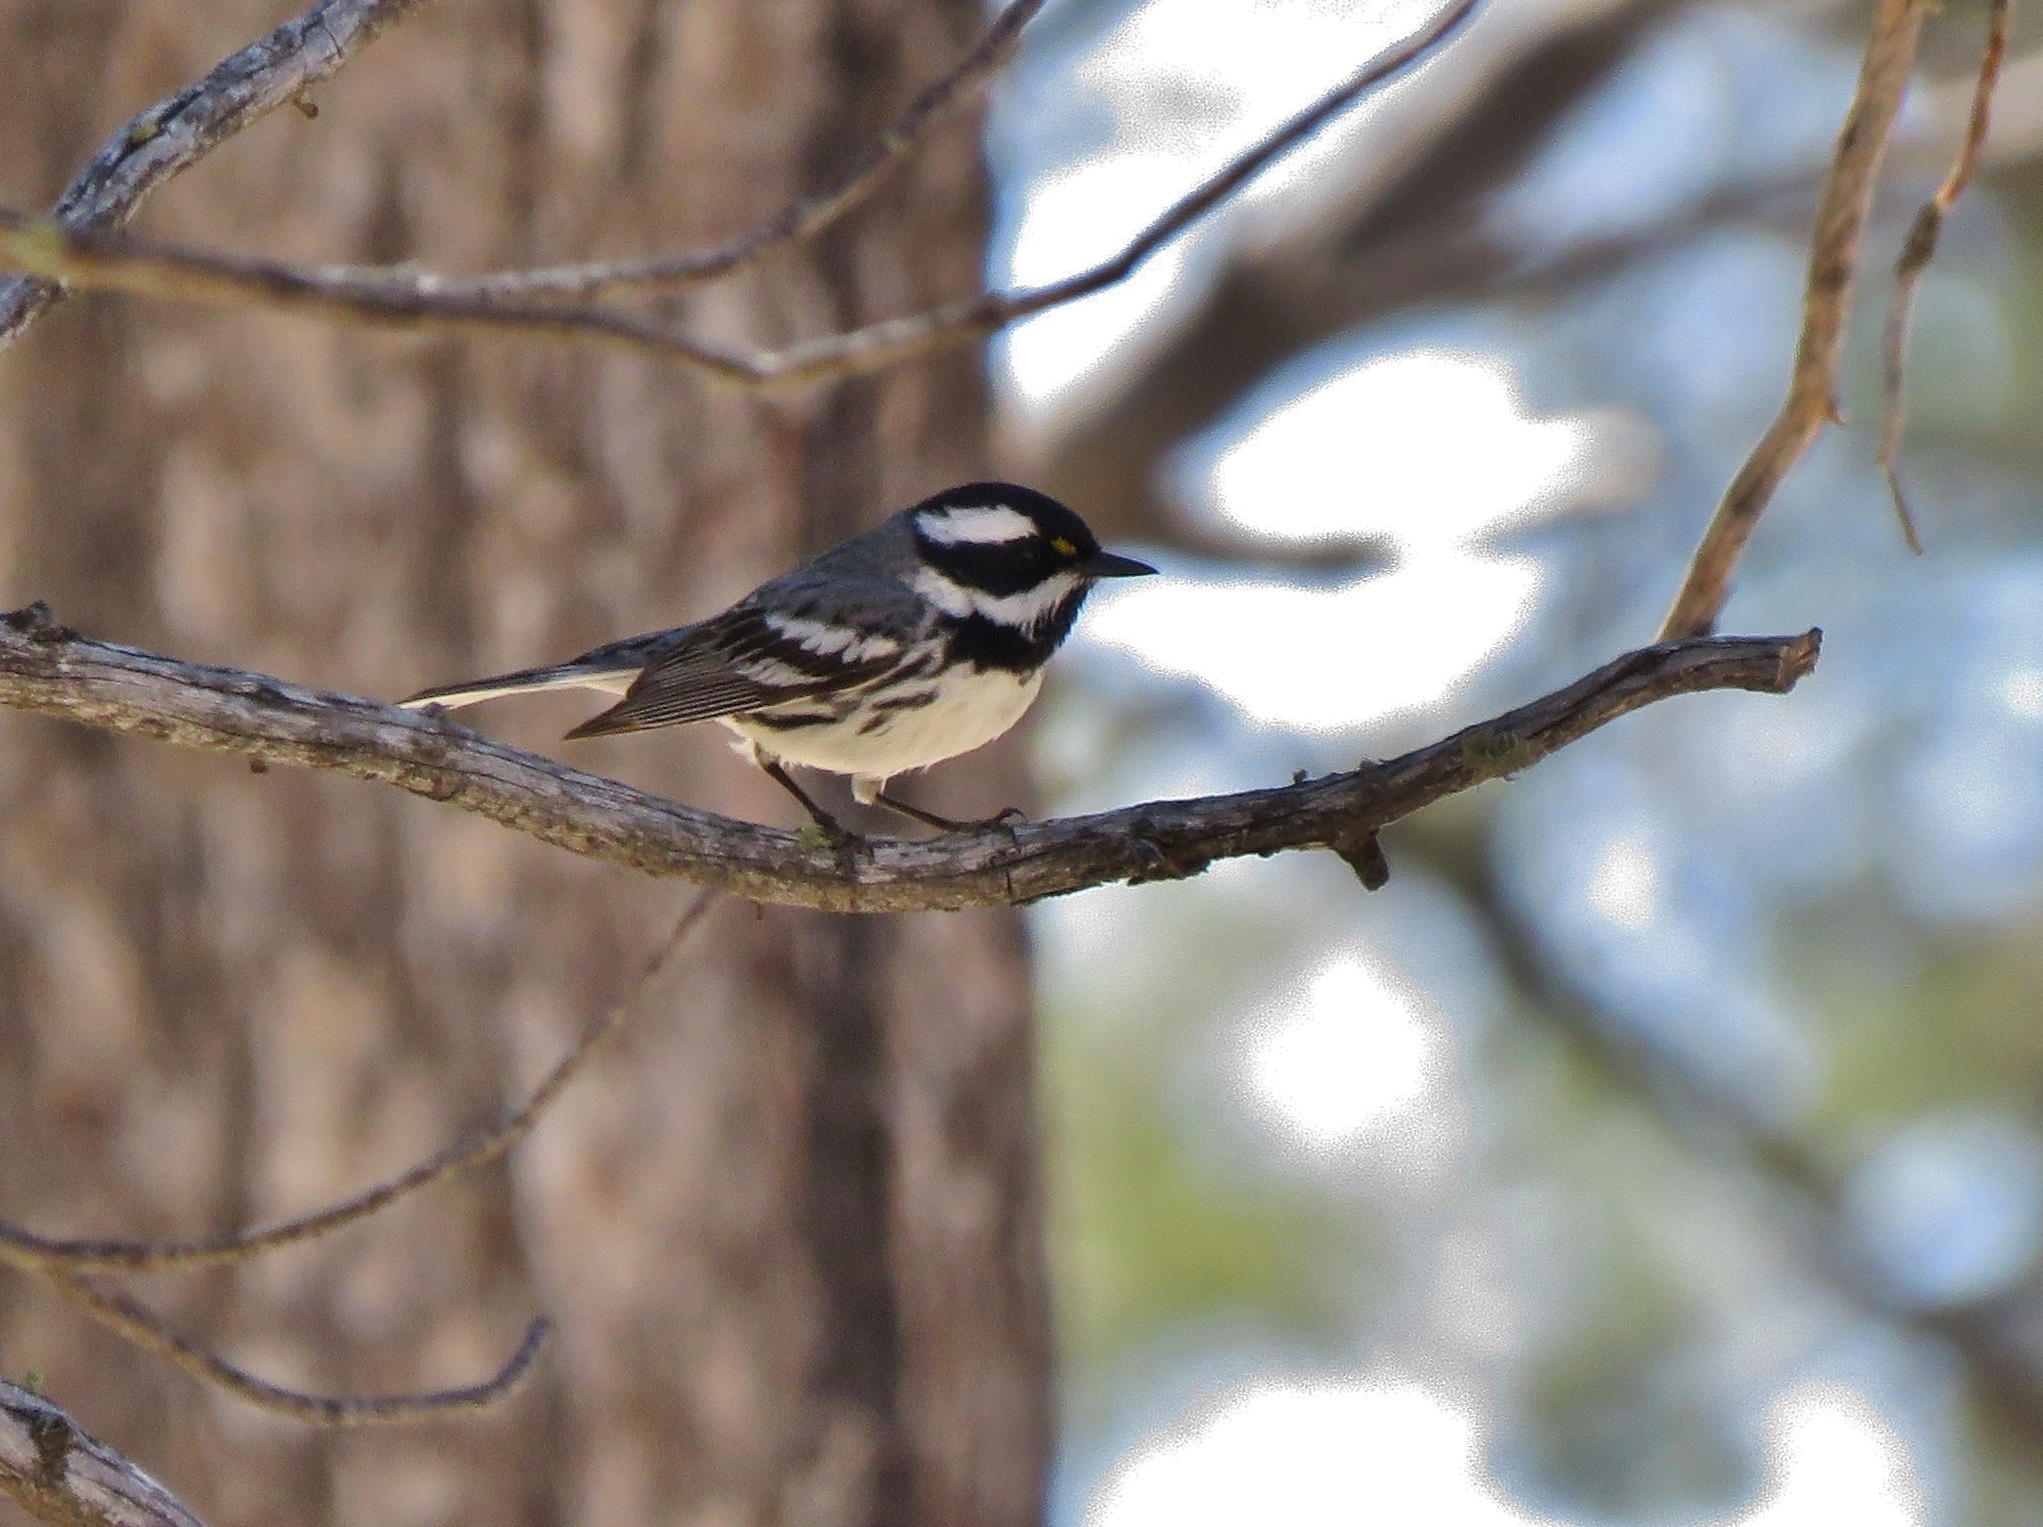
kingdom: Animalia
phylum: Chordata
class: Aves
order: Passeriformes
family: Parulidae
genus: Setophaga
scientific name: Setophaga nigrescens
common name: Black-throated gray warbler
